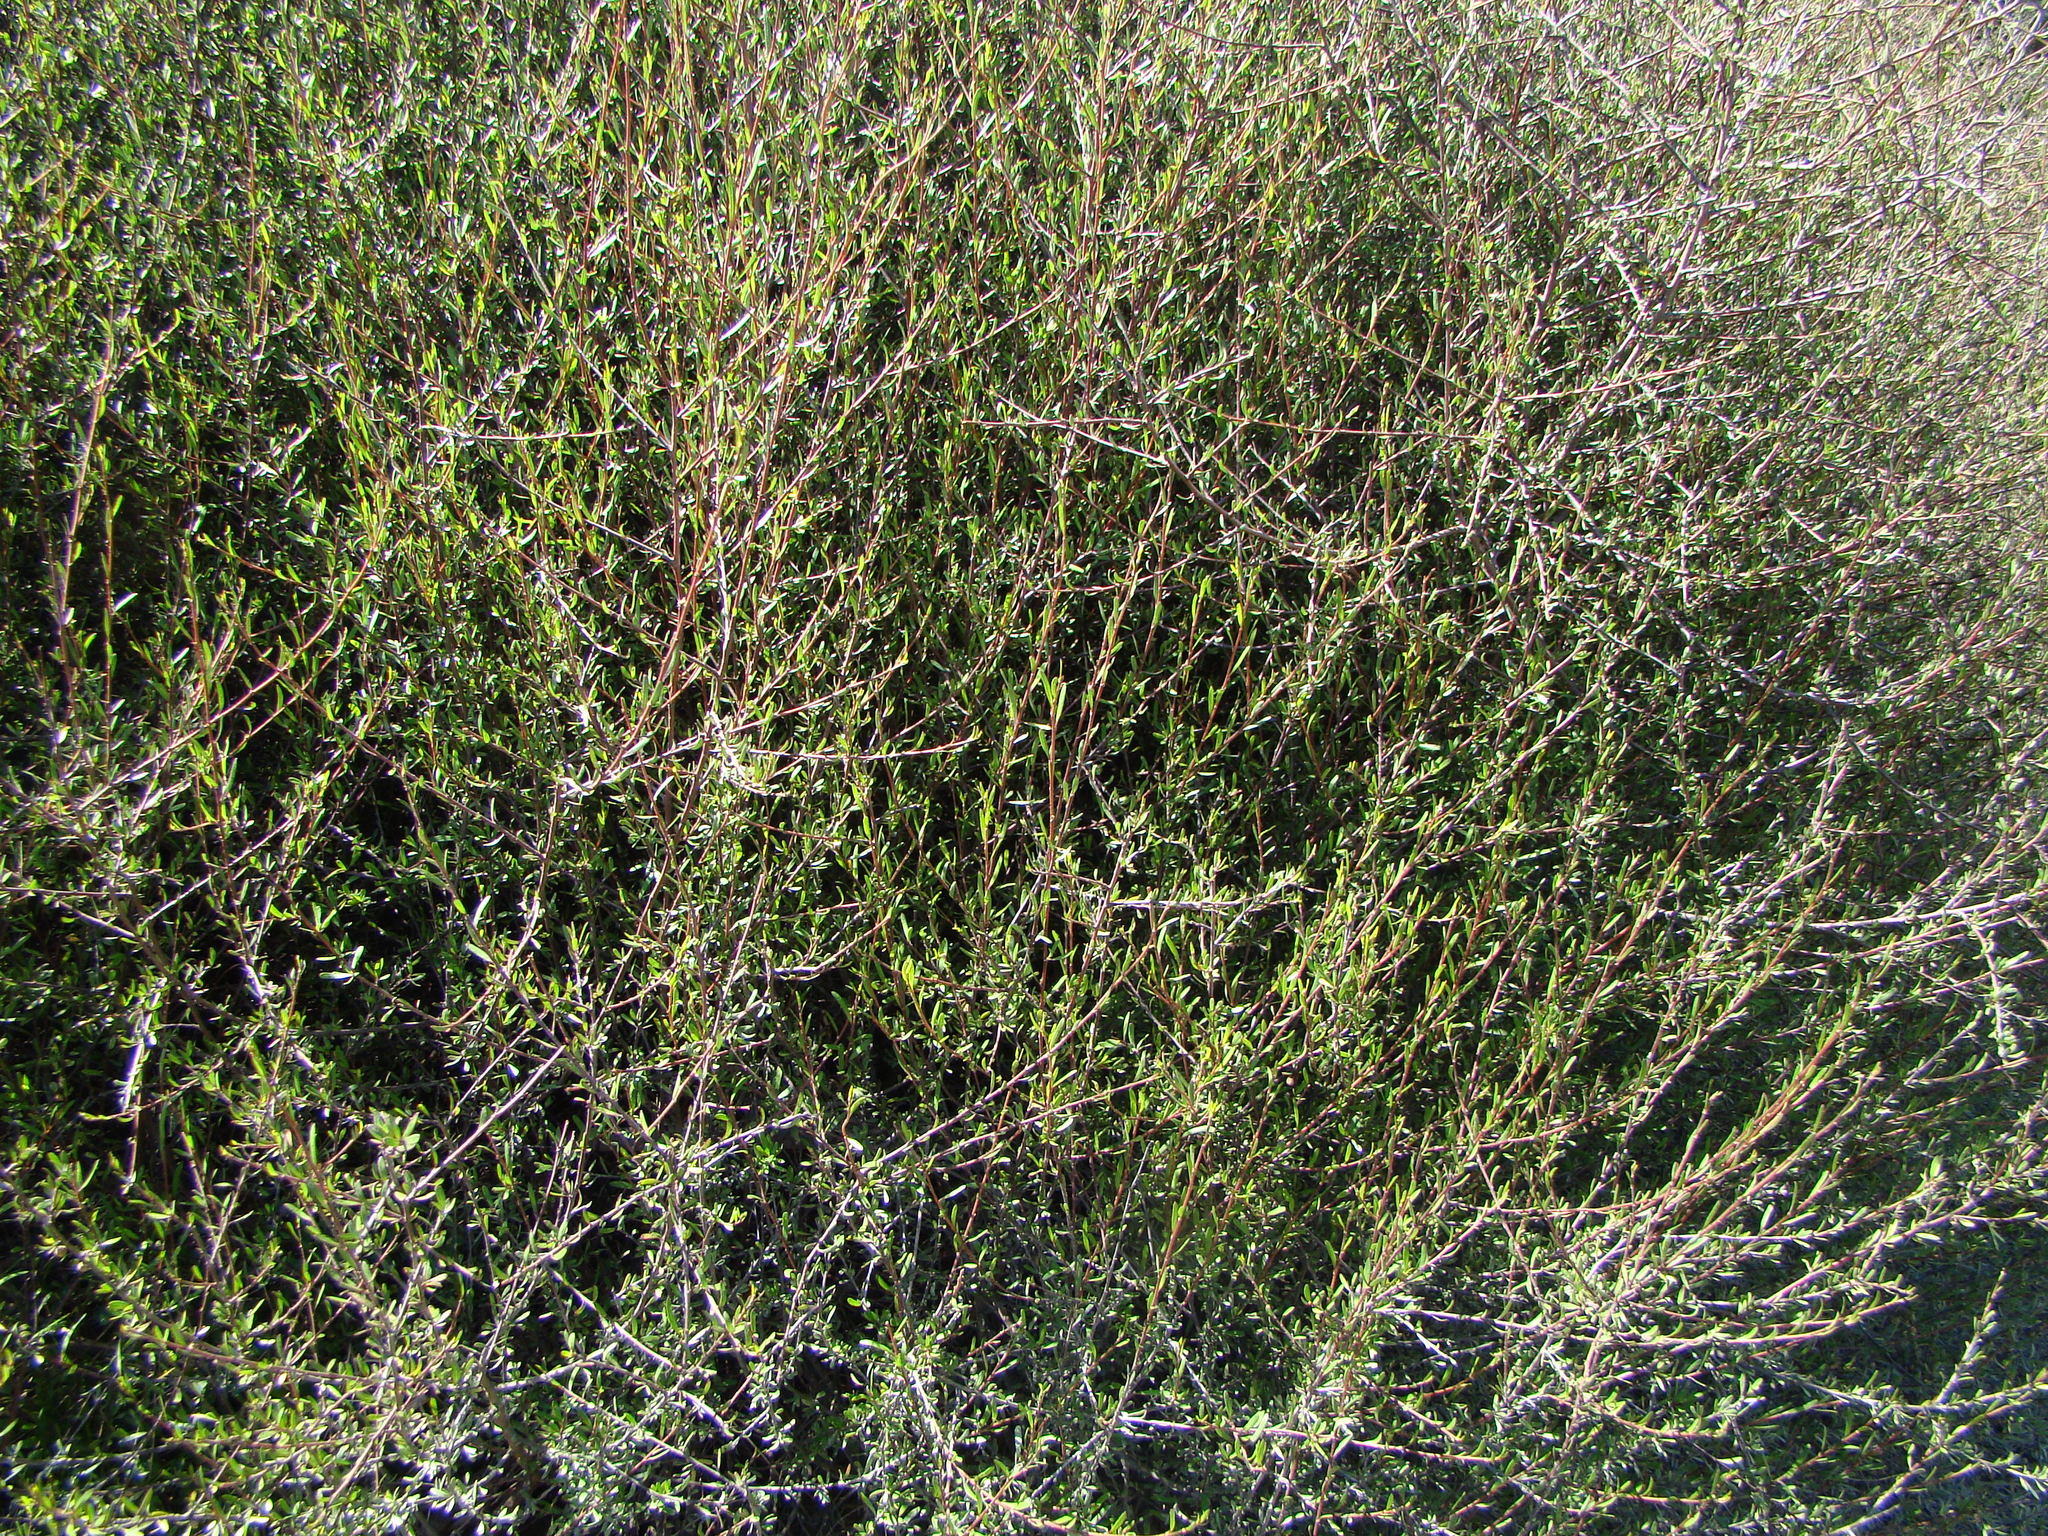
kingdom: Plantae
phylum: Tracheophyta
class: Magnoliopsida
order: Malvales
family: Malvaceae
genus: Plagianthus
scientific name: Plagianthus divaricatus
